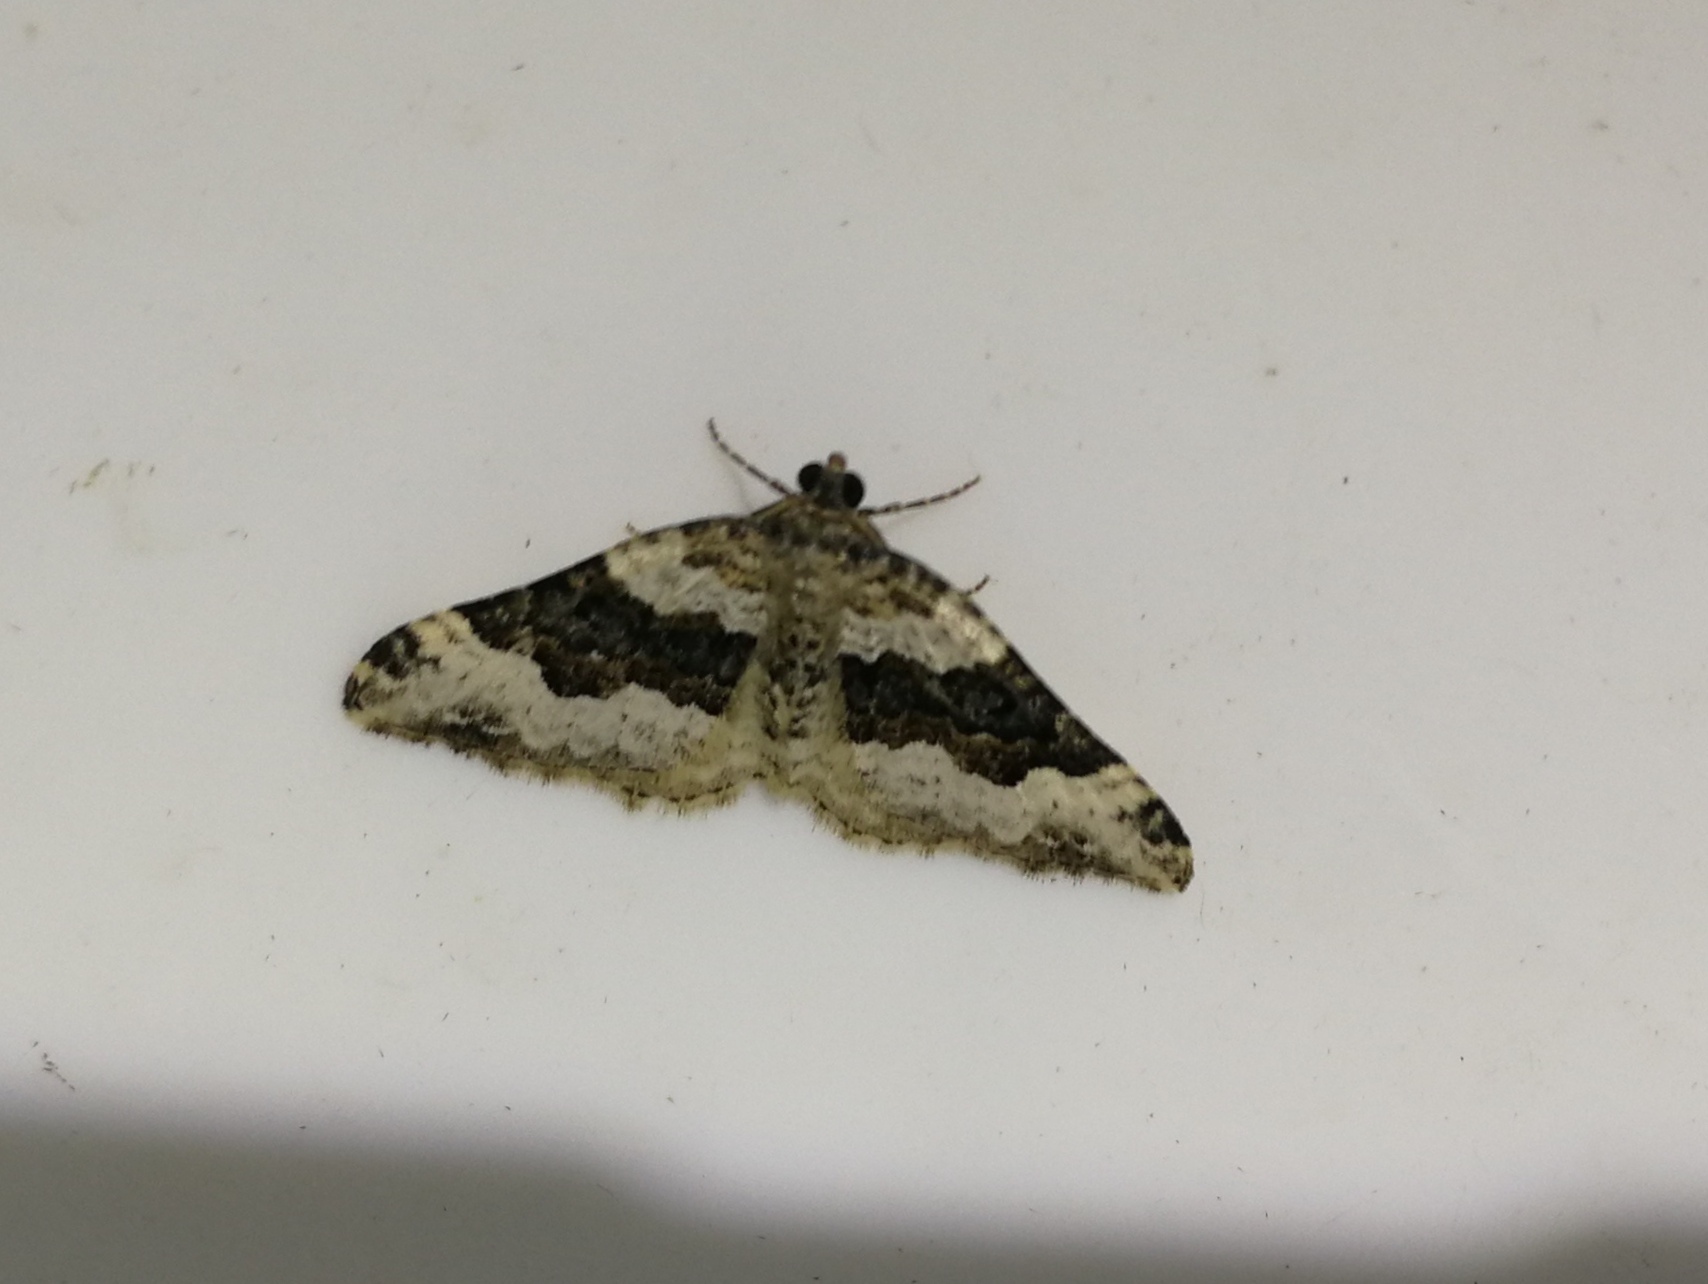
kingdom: Animalia
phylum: Arthropoda
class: Insecta
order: Lepidoptera
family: Geometridae
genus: Epirrhoe
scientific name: Epirrhoe galiata
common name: Galium carpet
